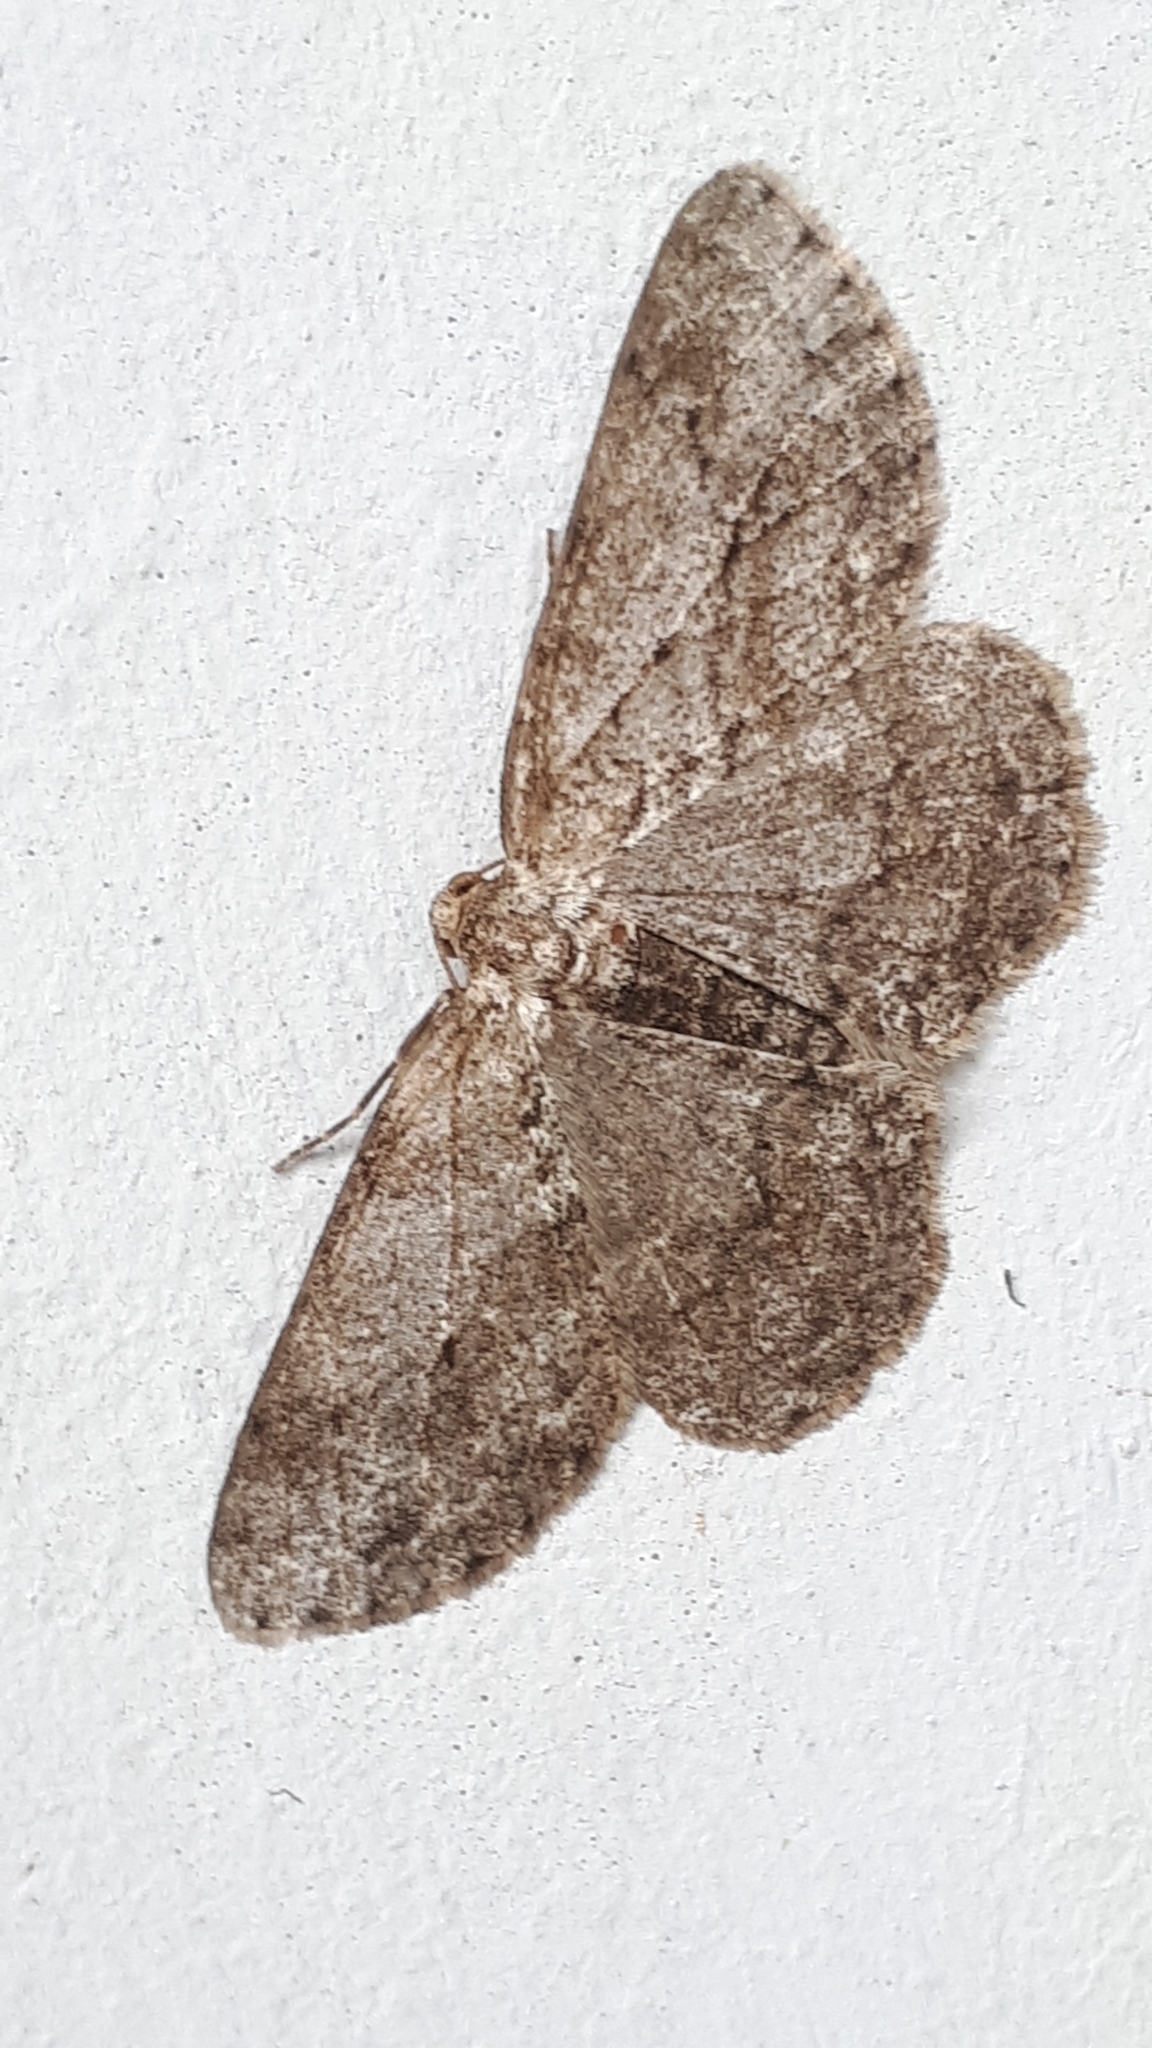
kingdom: Animalia
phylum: Arthropoda
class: Insecta
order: Lepidoptera
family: Geometridae
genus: Ectropis
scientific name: Ectropis crepuscularia
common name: Engrailed
